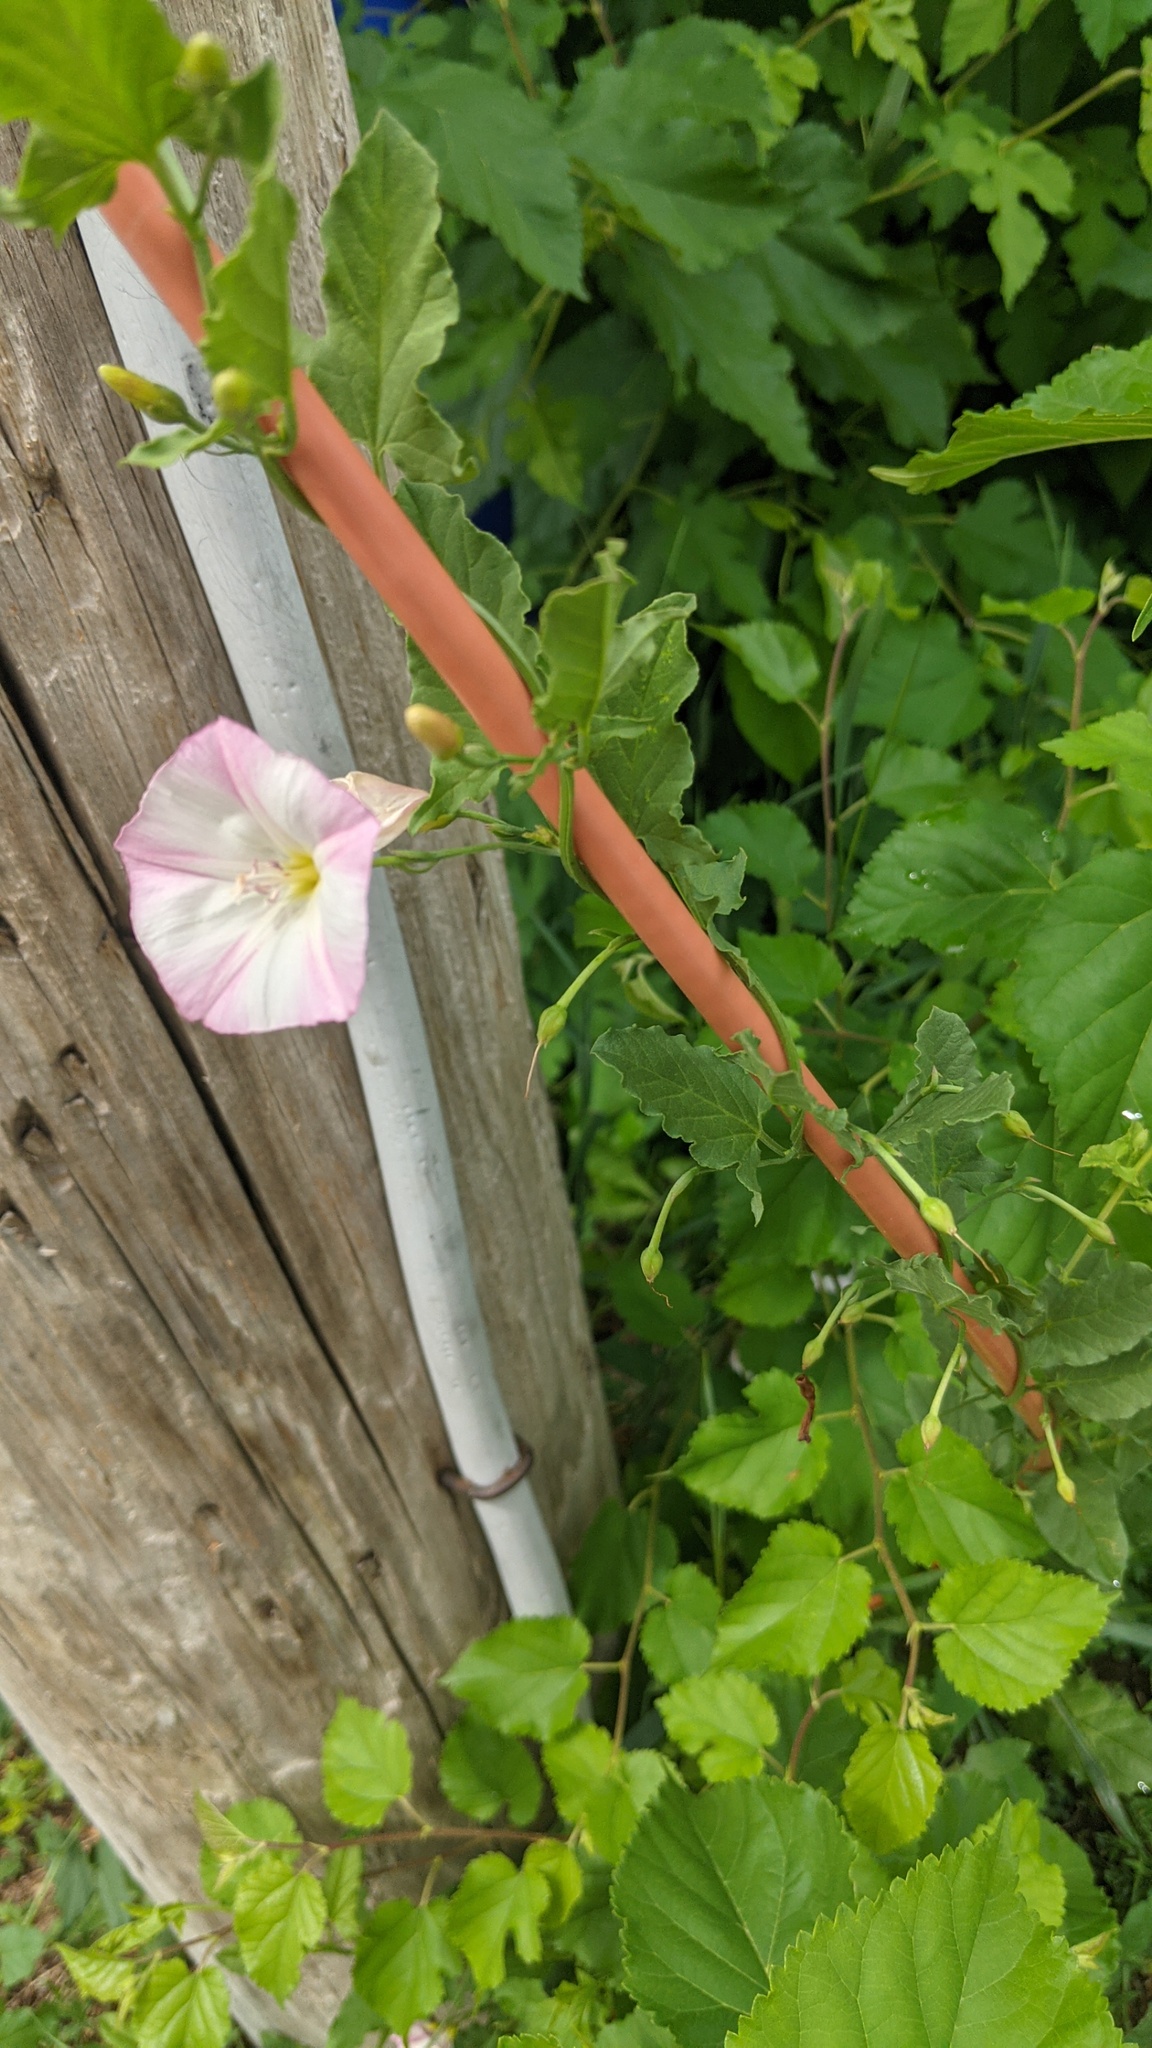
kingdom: Plantae
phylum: Tracheophyta
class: Magnoliopsida
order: Solanales
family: Convolvulaceae
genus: Convolvulus
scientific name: Convolvulus arvensis
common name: Field bindweed
